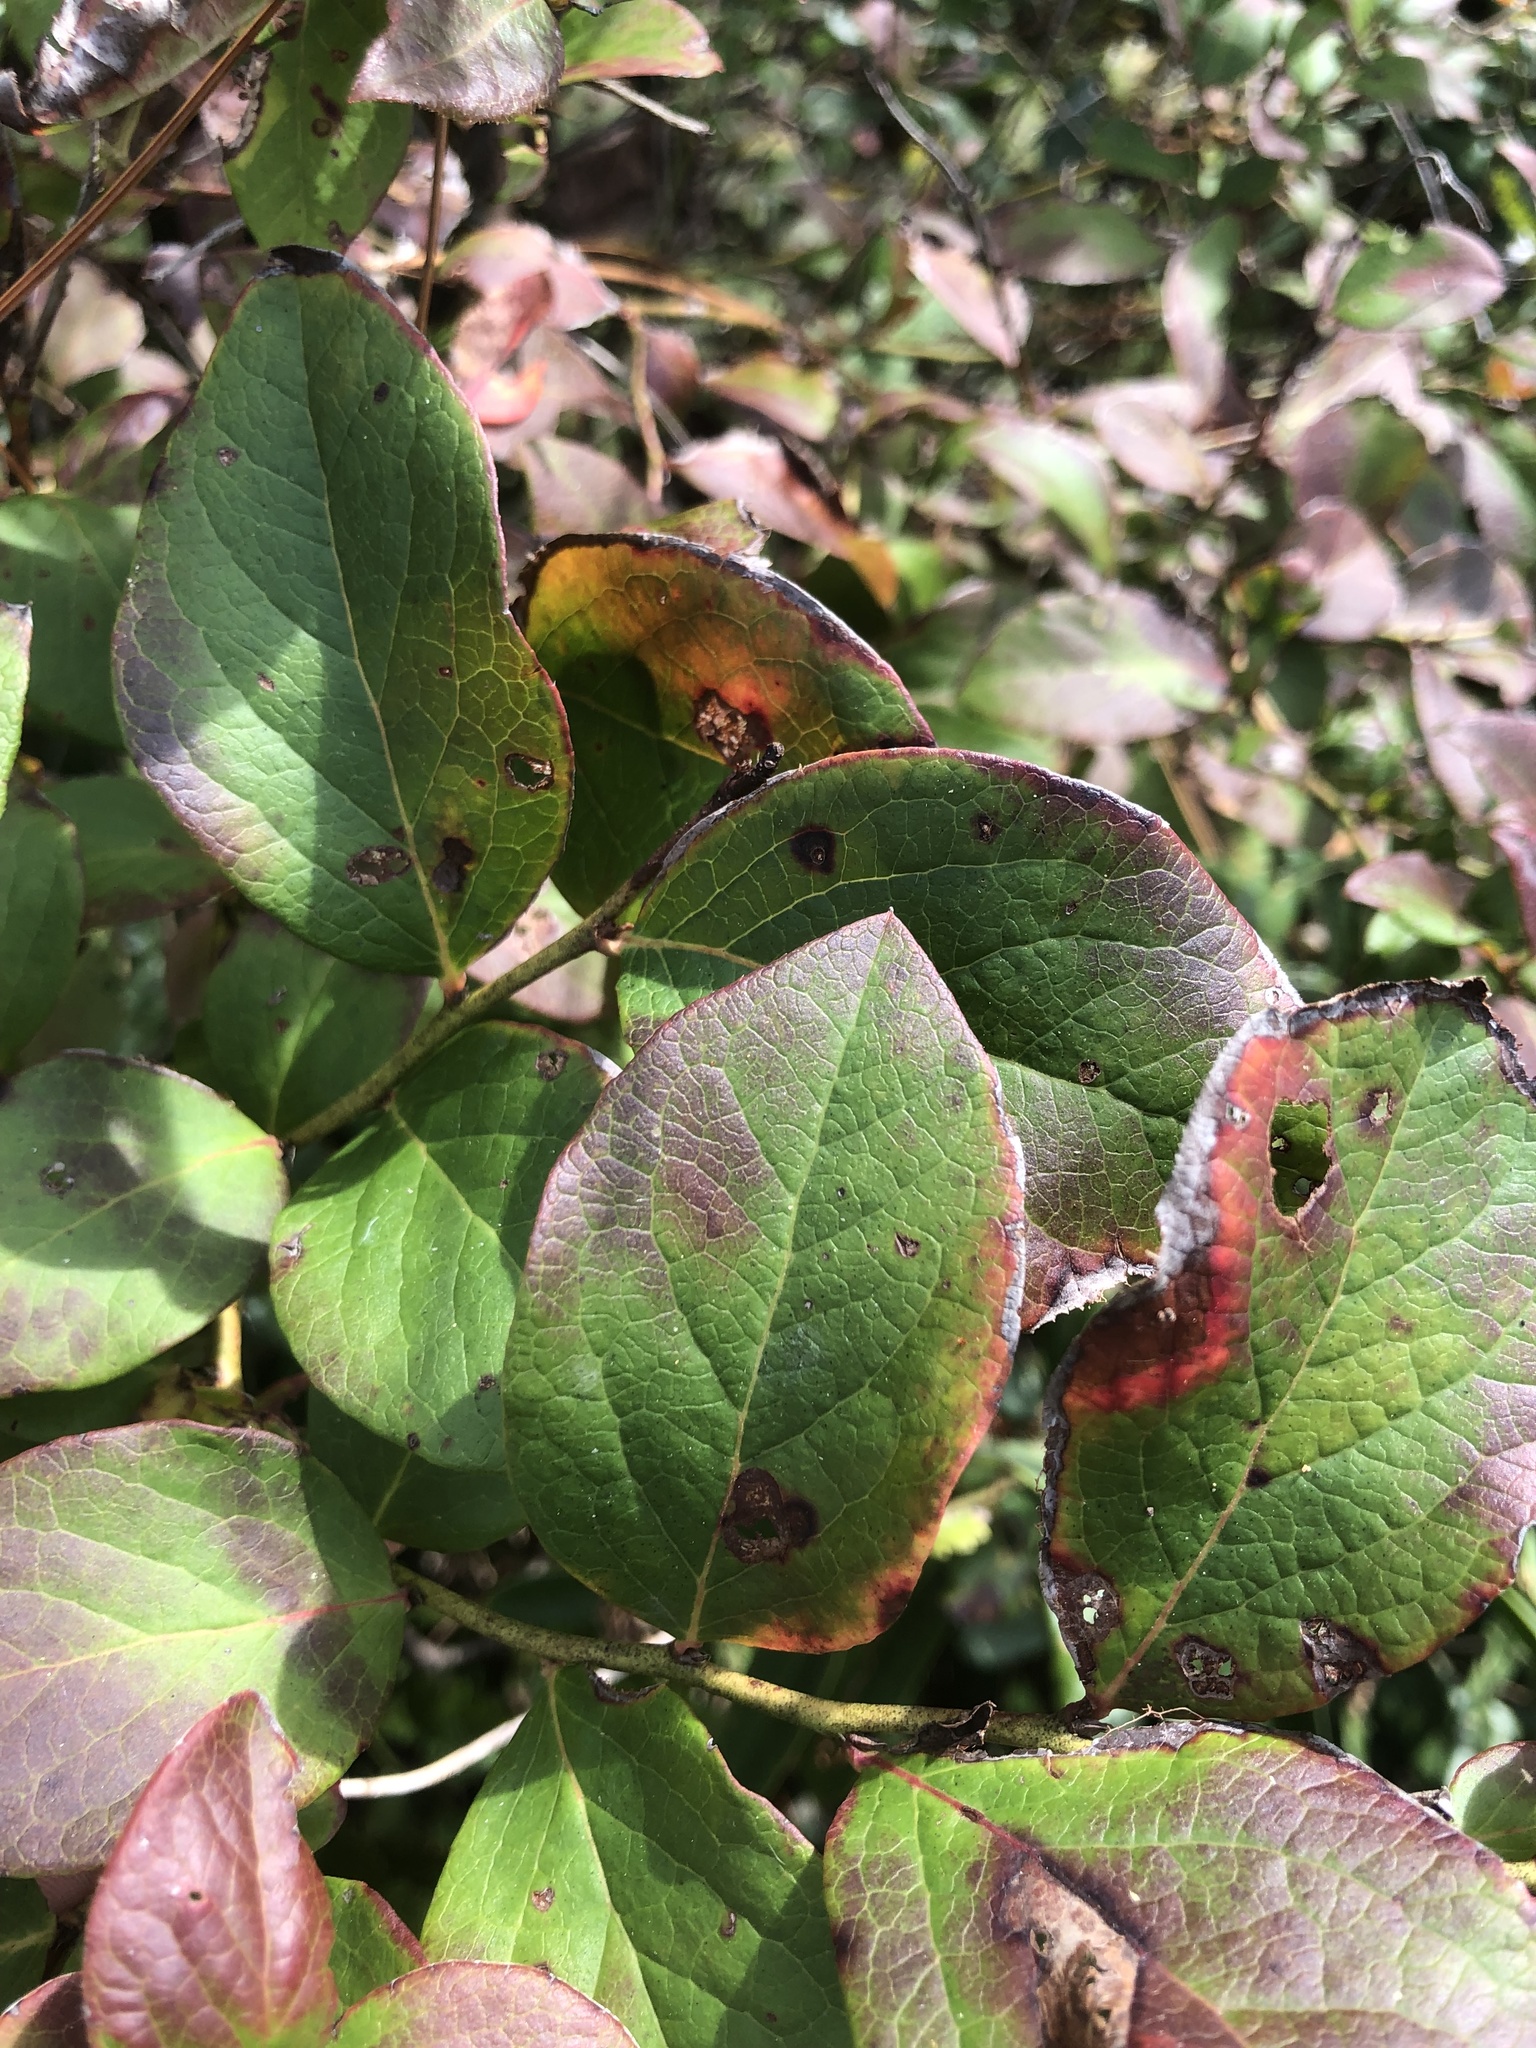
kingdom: Plantae
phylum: Tracheophyta
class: Magnoliopsida
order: Ericales
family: Ericaceae
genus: Vaccinium
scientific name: Vaccinium corymbosum
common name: Blueberry
